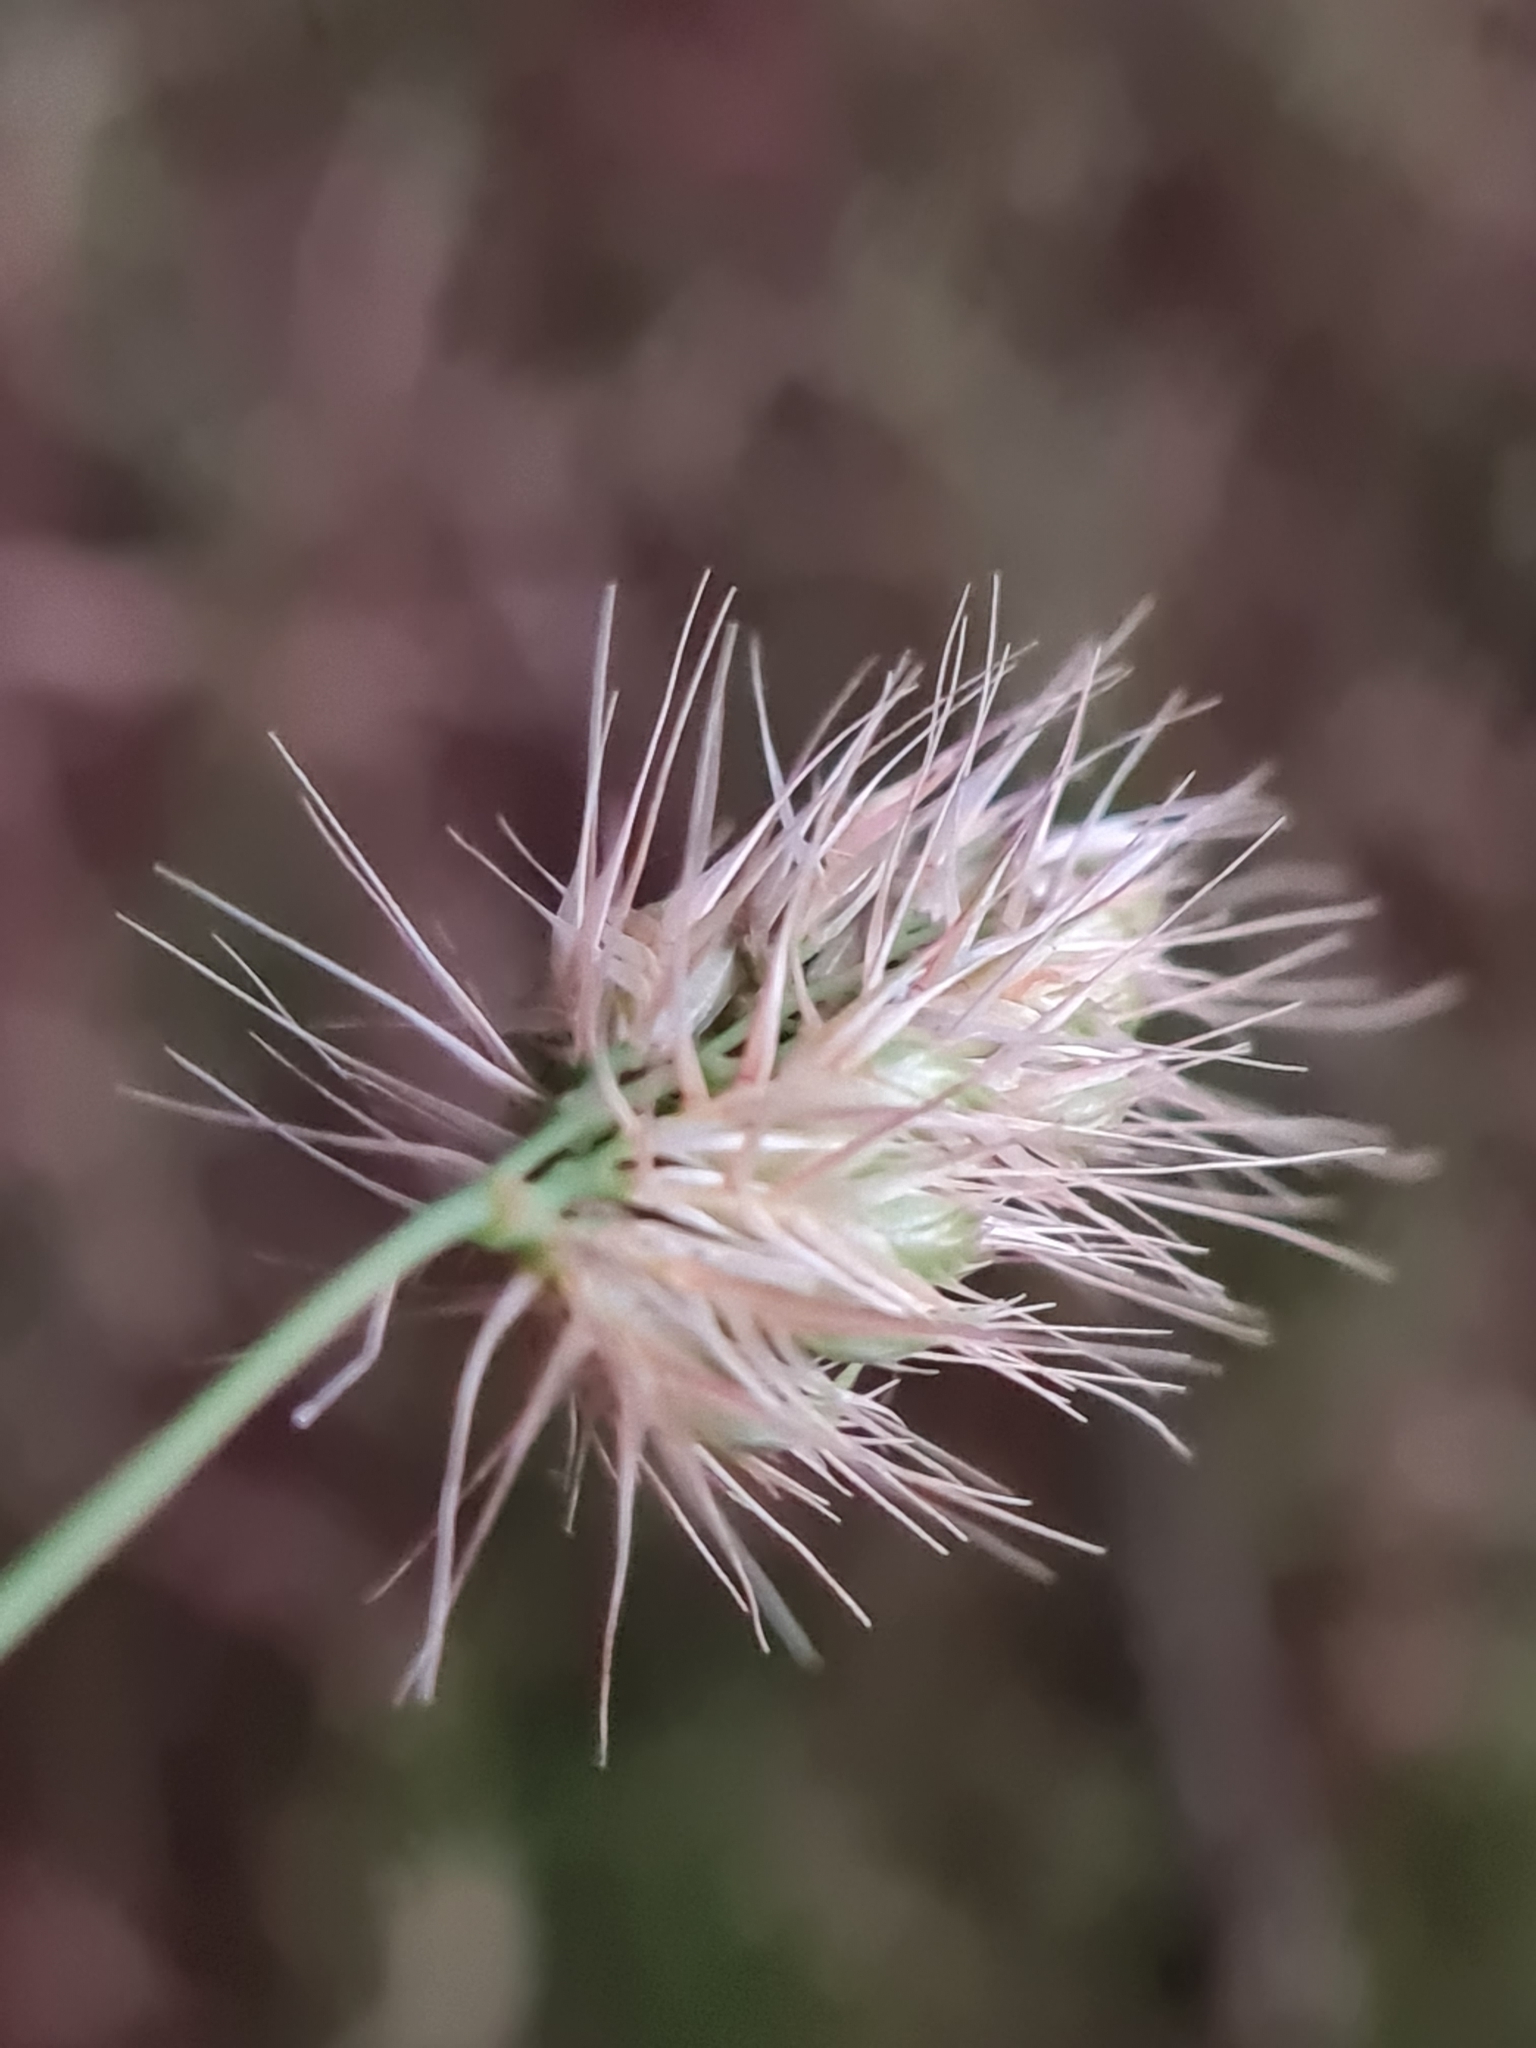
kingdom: Plantae
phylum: Tracheophyta
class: Liliopsida
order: Poales
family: Poaceae
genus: Cynosurus
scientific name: Cynosurus echinatus
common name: Rough dog's-tail
